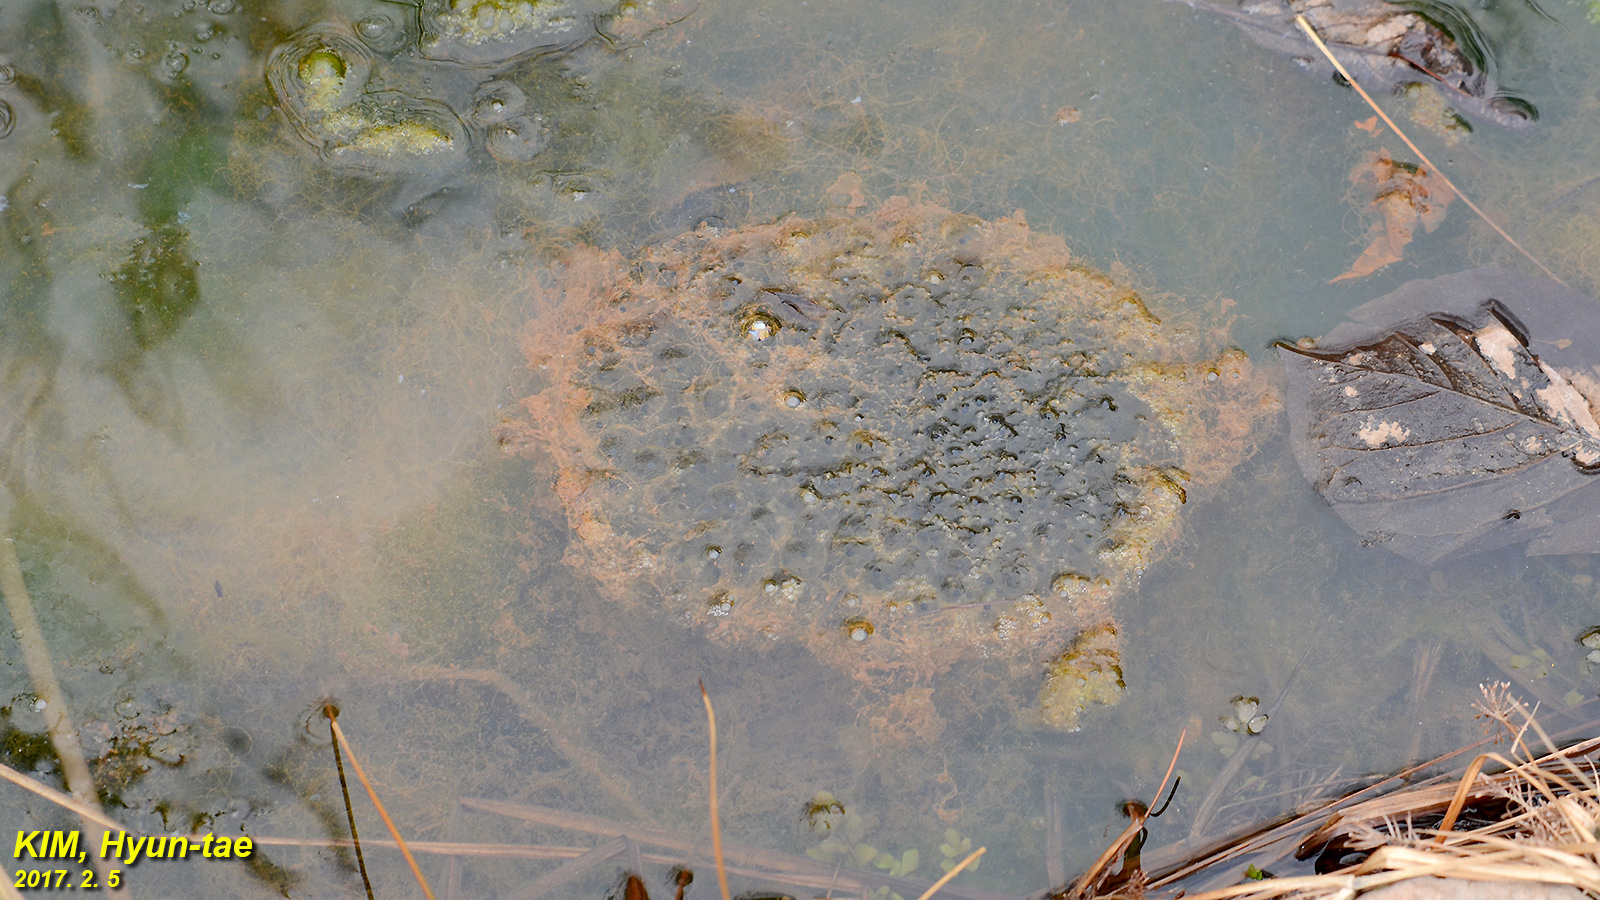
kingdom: Animalia
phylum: Chordata
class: Amphibia
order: Anura
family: Ranidae
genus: Rana
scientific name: Rana uenoi
